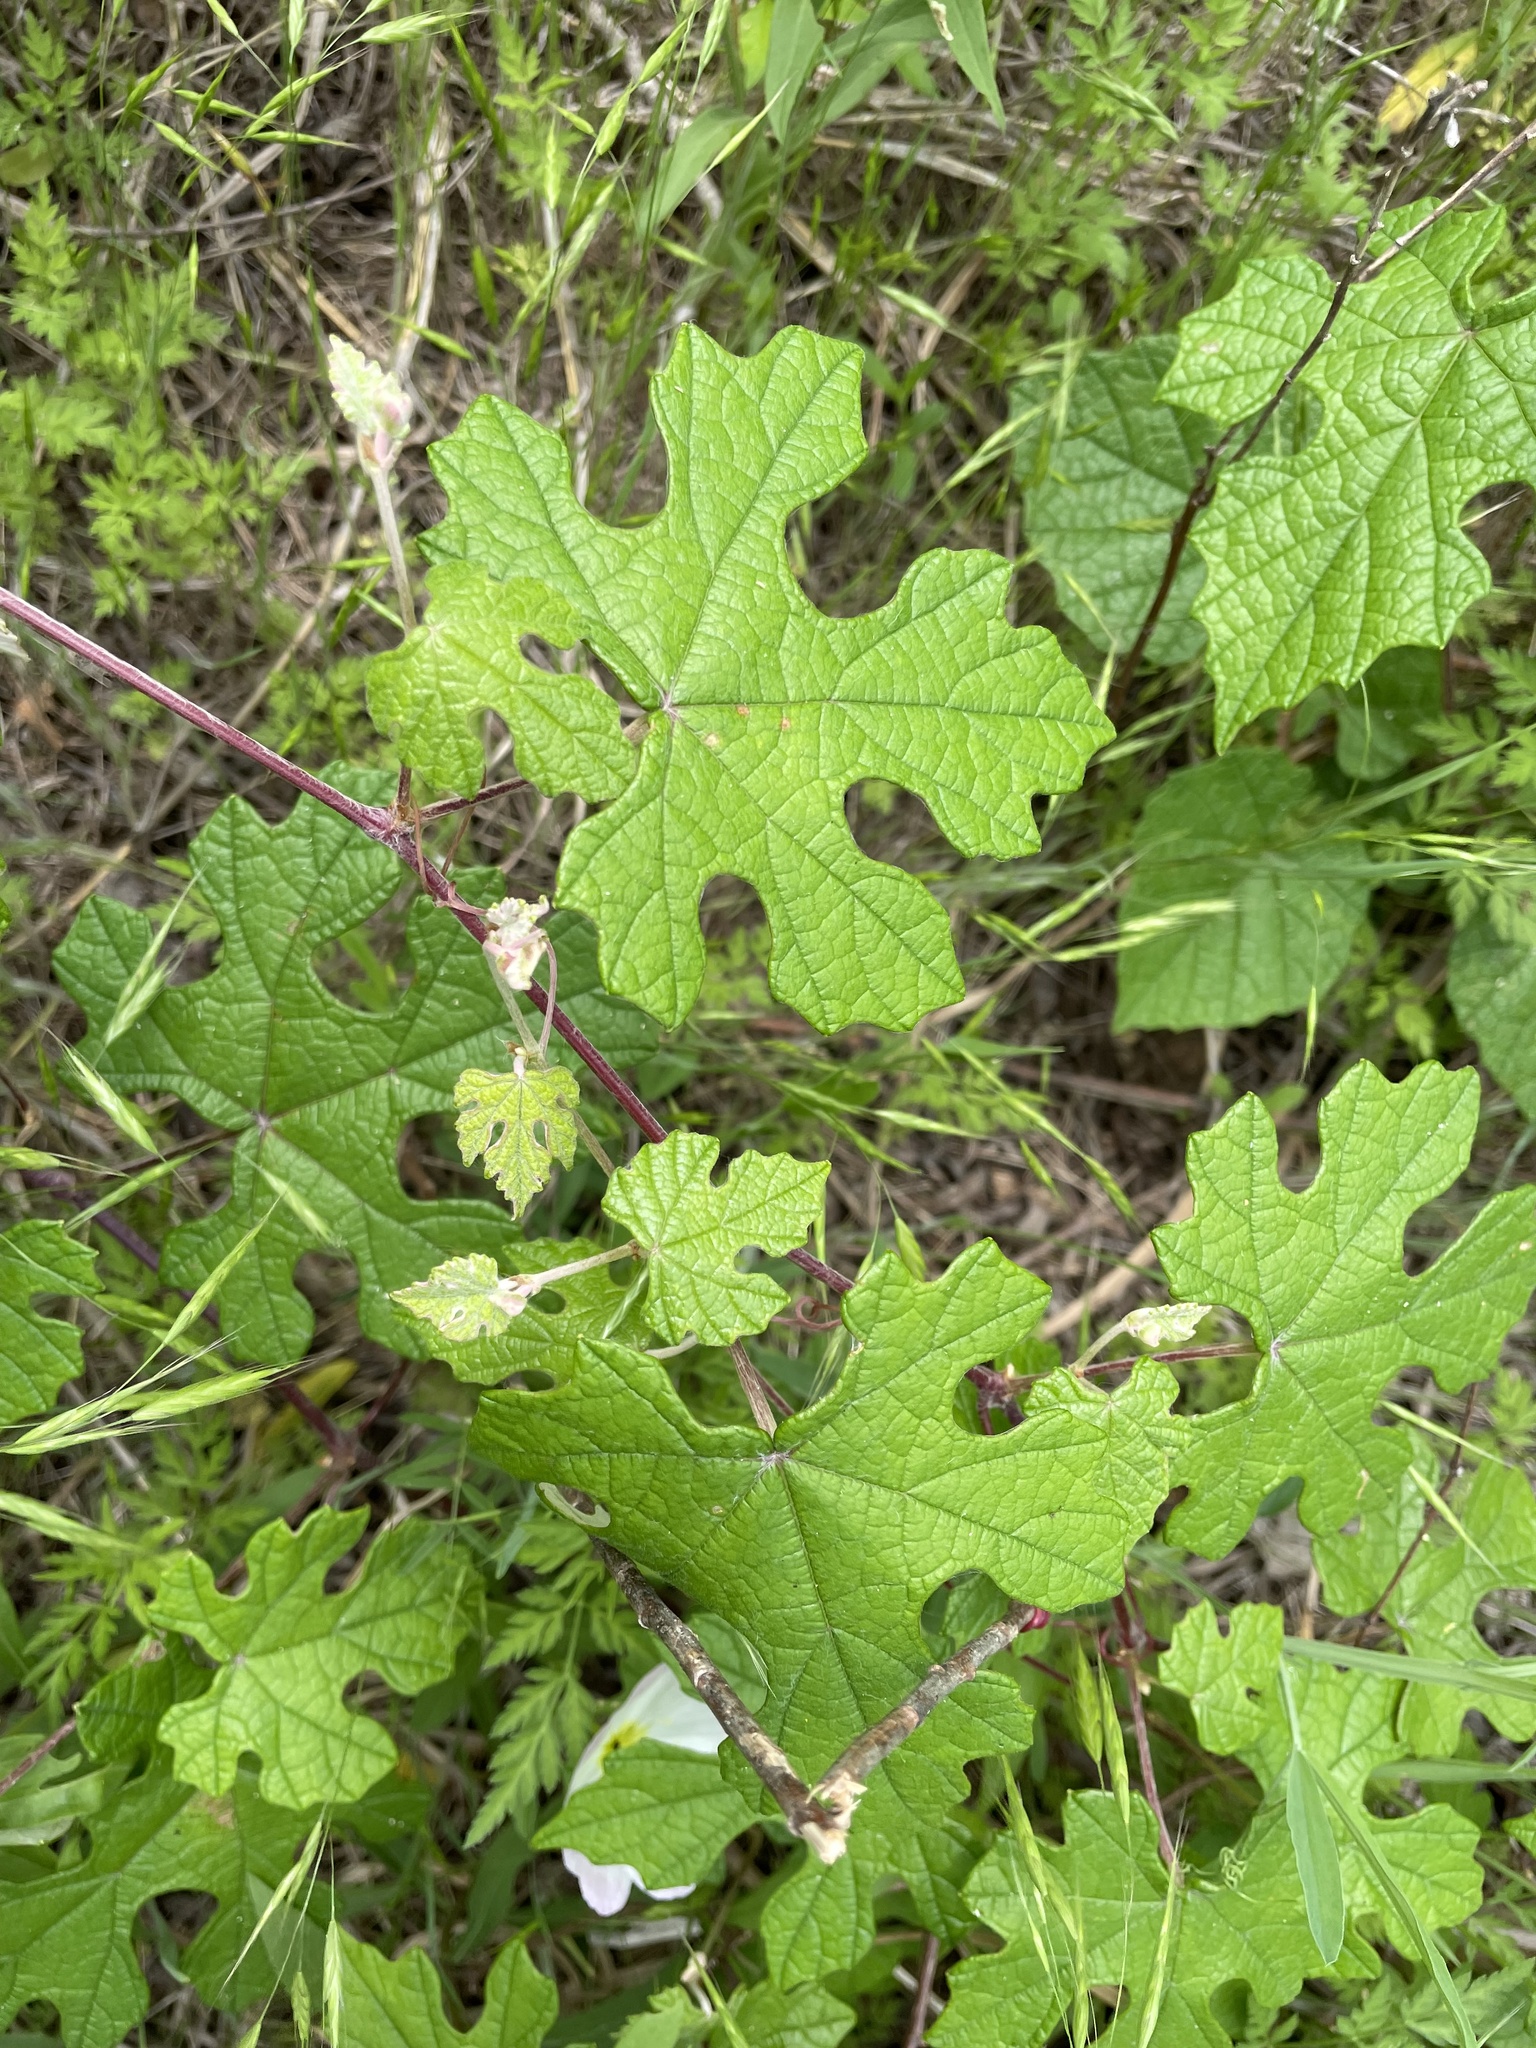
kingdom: Plantae
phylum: Tracheophyta
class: Magnoliopsida
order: Vitales
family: Vitaceae
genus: Vitis
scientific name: Vitis mustangensis
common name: Mustang grape
